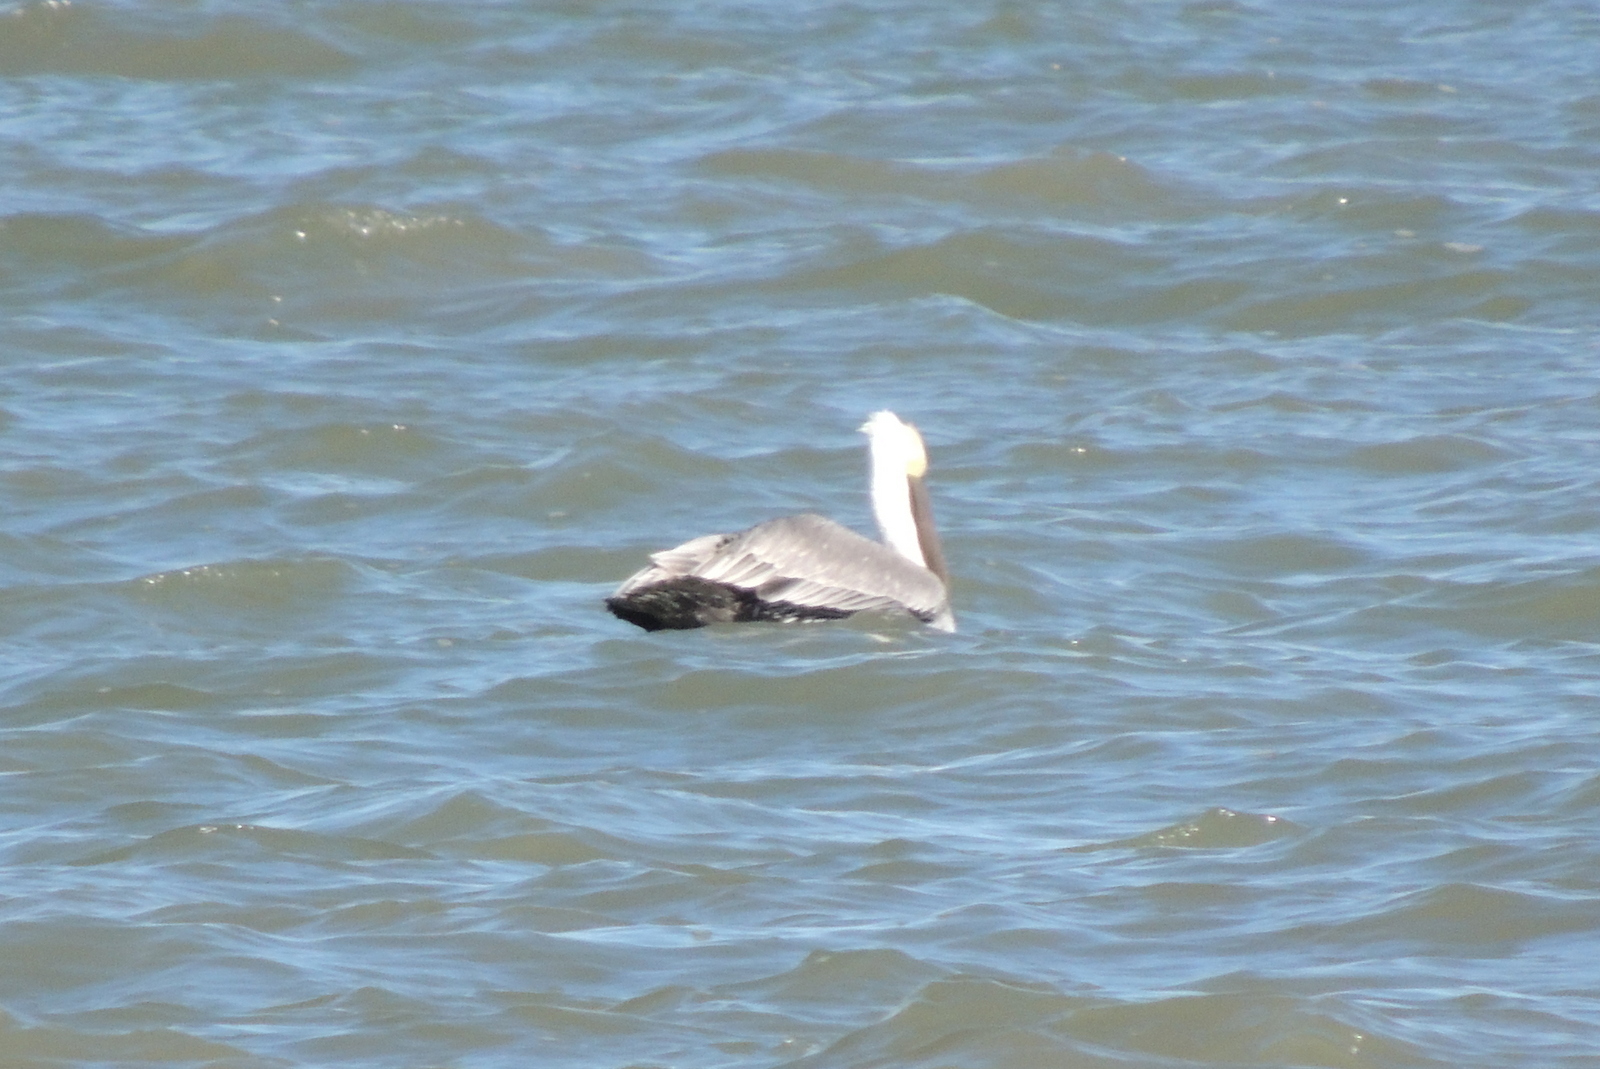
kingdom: Animalia
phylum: Chordata
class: Aves
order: Pelecaniformes
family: Pelecanidae
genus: Pelecanus
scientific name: Pelecanus occidentalis
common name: Brown pelican
